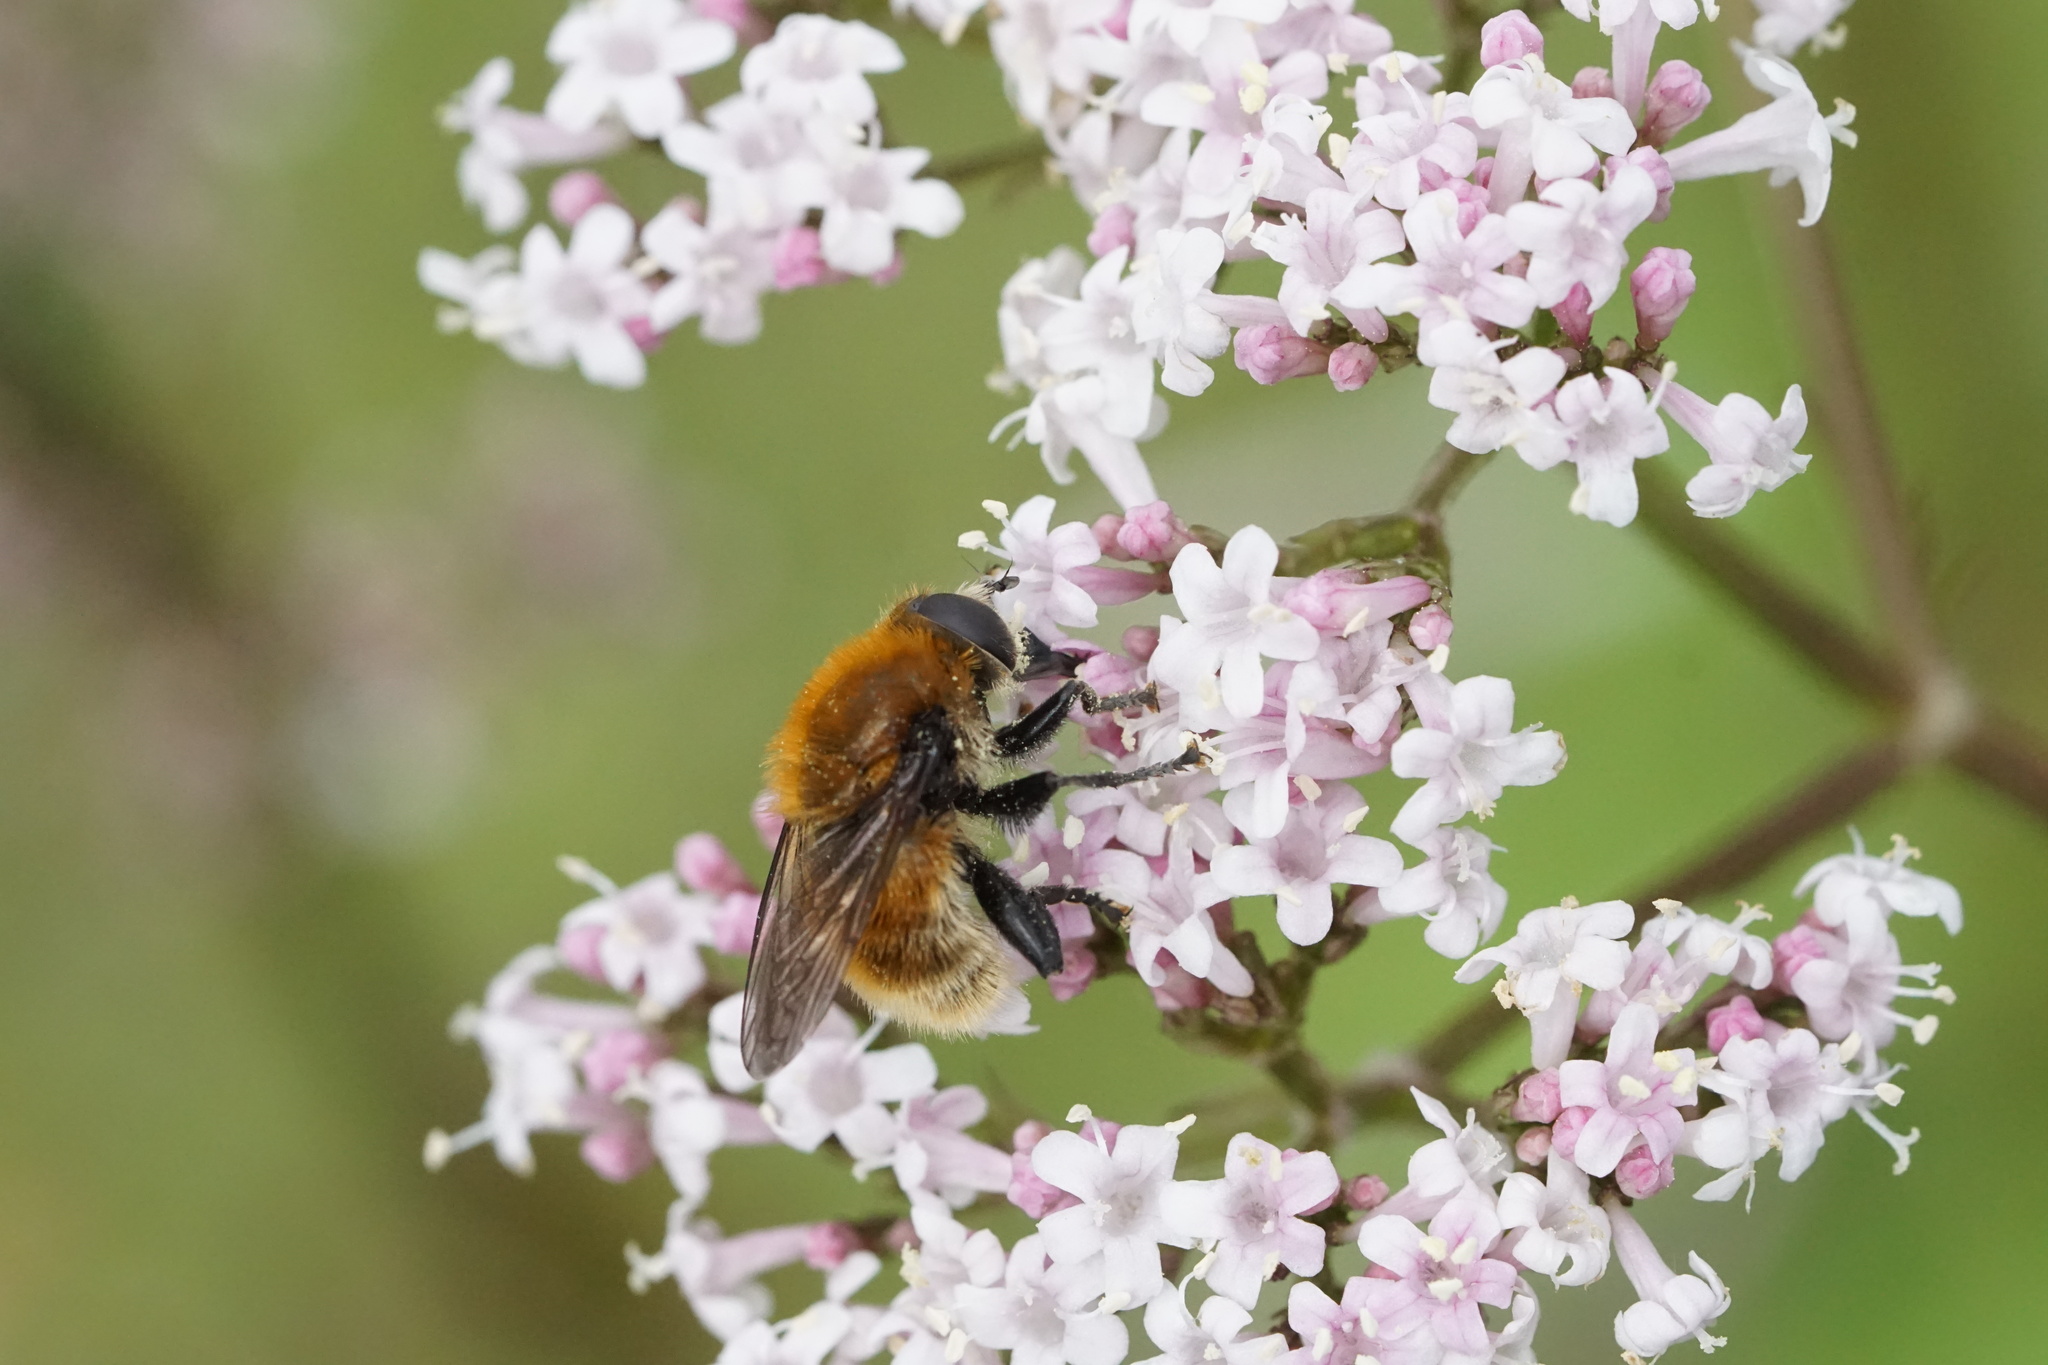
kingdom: Animalia
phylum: Arthropoda
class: Insecta
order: Diptera
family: Syrphidae
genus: Merodon
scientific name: Merodon equestris
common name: Greater bulb-fly
